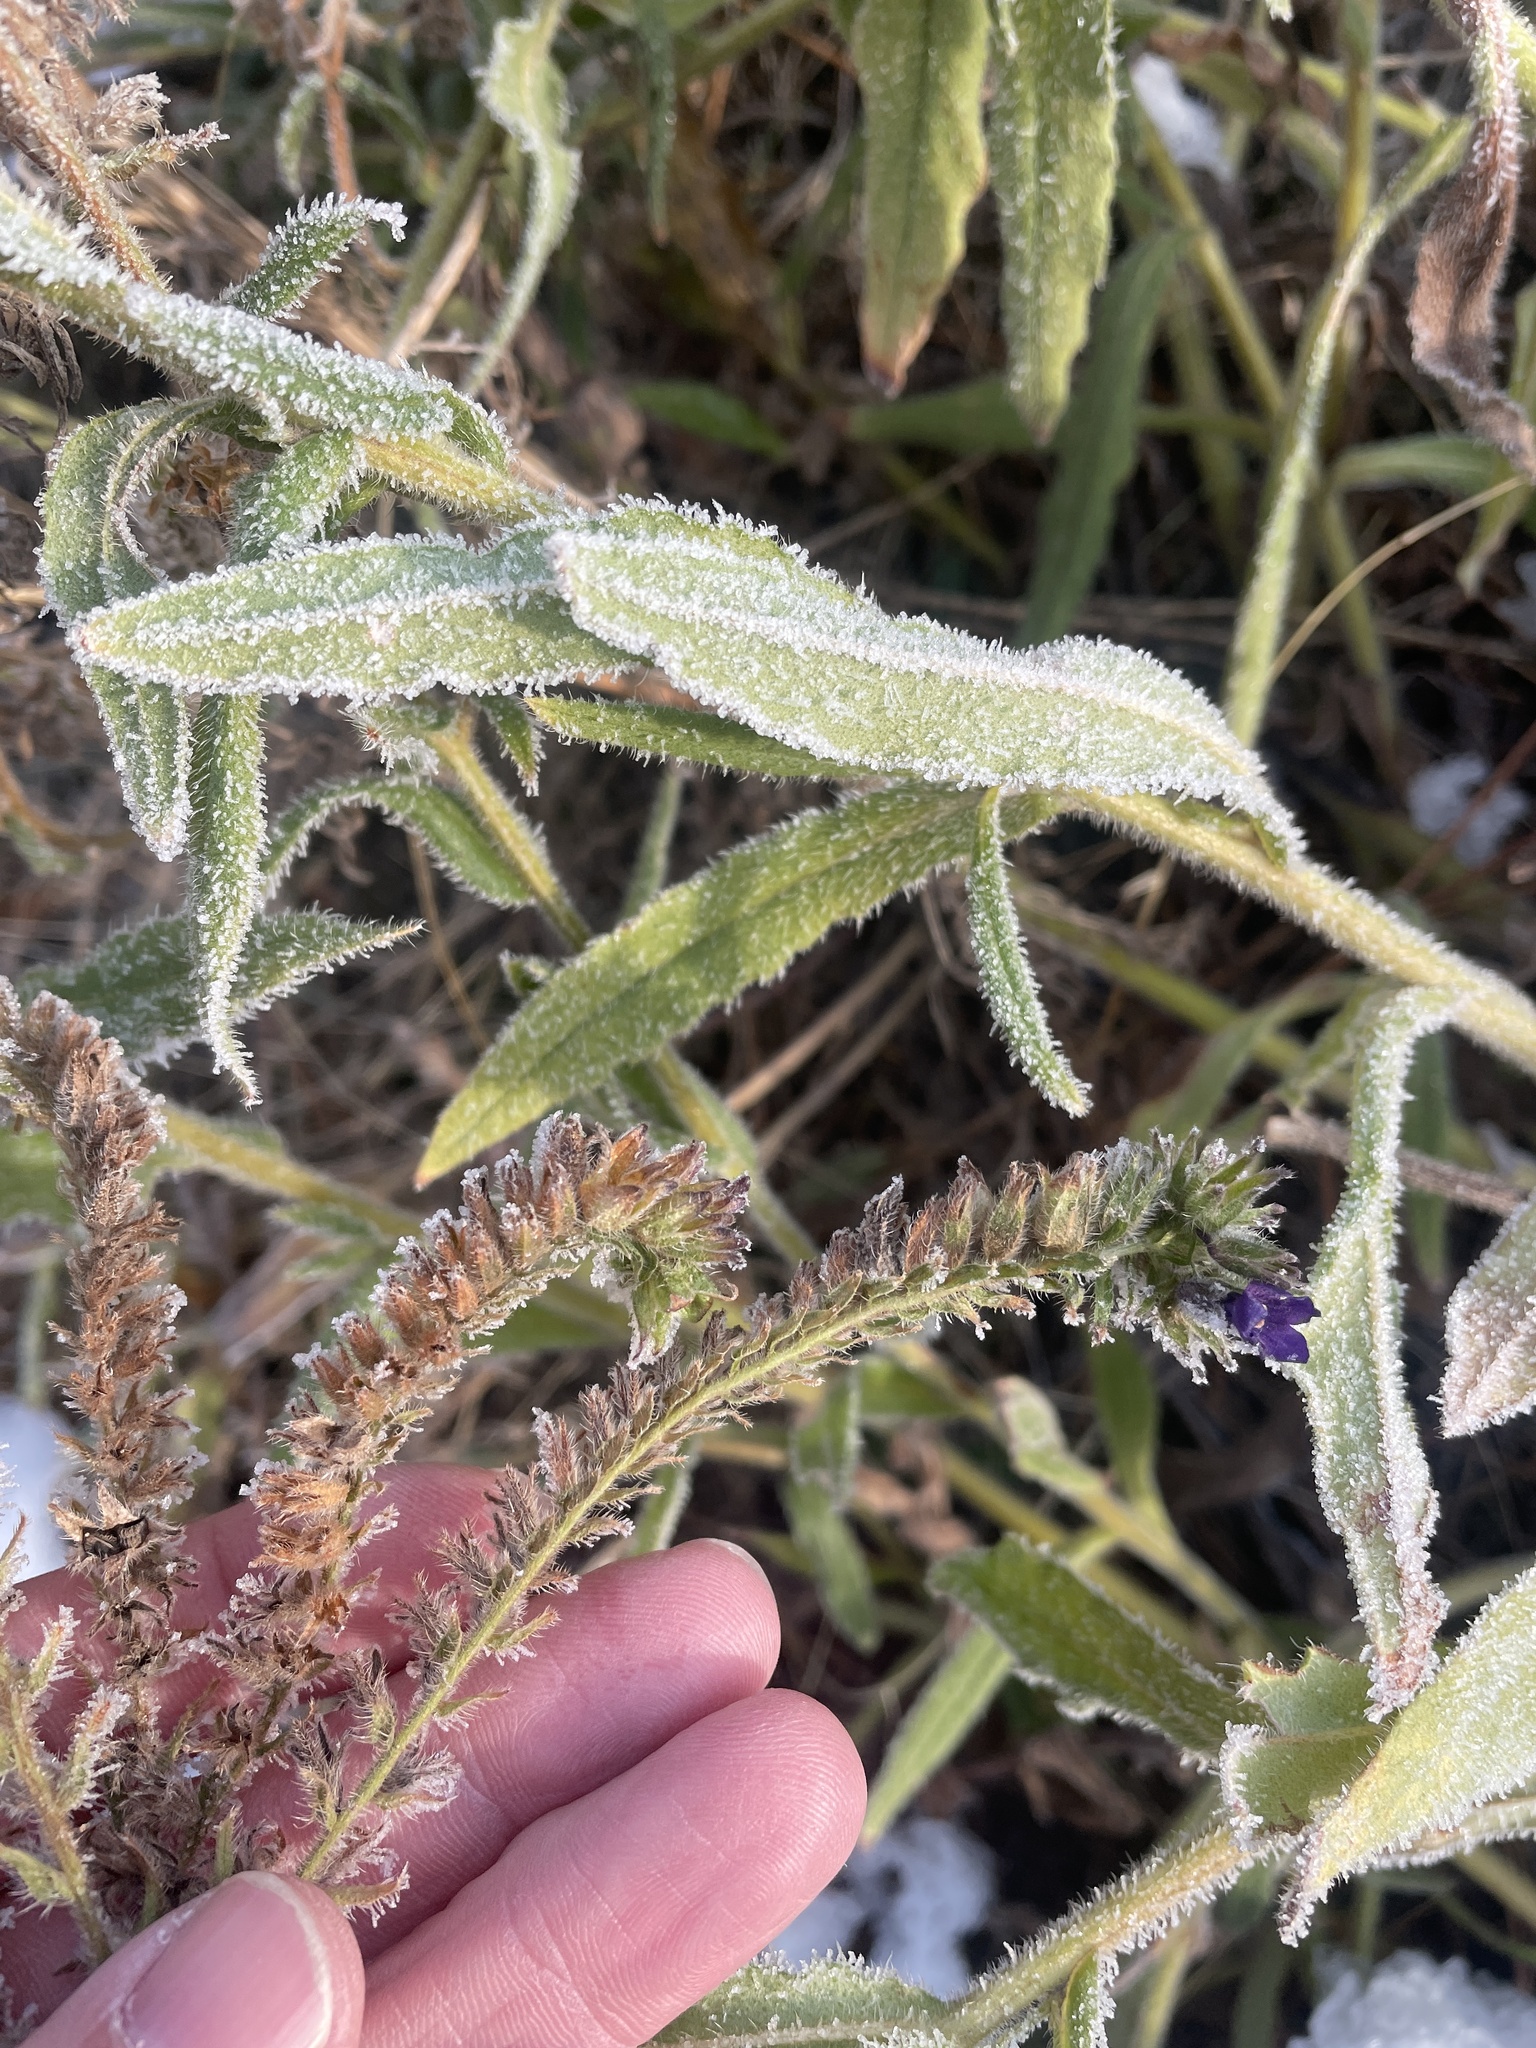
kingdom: Plantae
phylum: Tracheophyta
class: Magnoliopsida
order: Boraginales
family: Boraginaceae
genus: Anchusa
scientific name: Anchusa officinalis
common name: Alkanet
